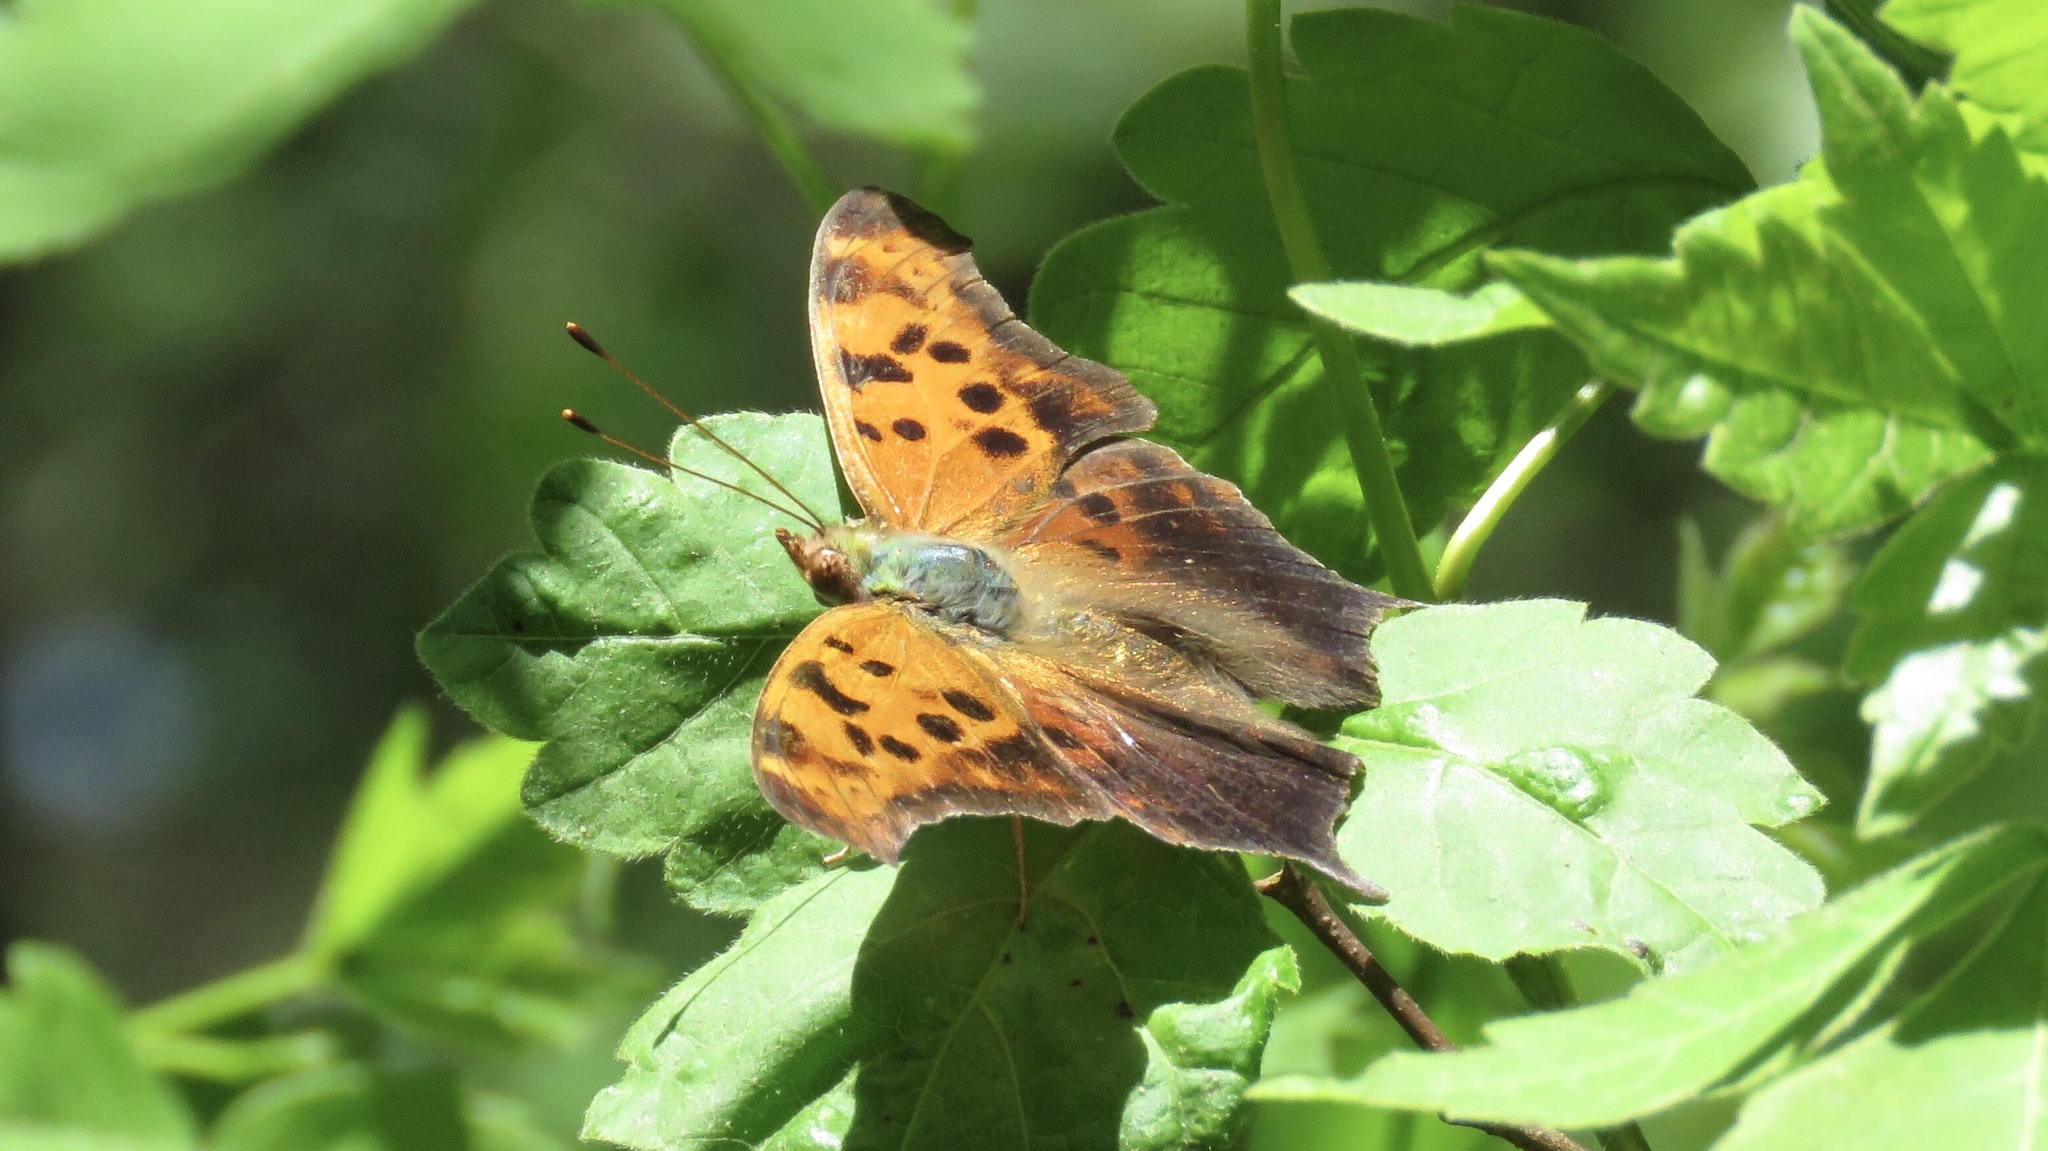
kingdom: Animalia
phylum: Arthropoda
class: Insecta
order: Lepidoptera
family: Nymphalidae
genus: Polygonia
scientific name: Polygonia interrogationis
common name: Question mark
